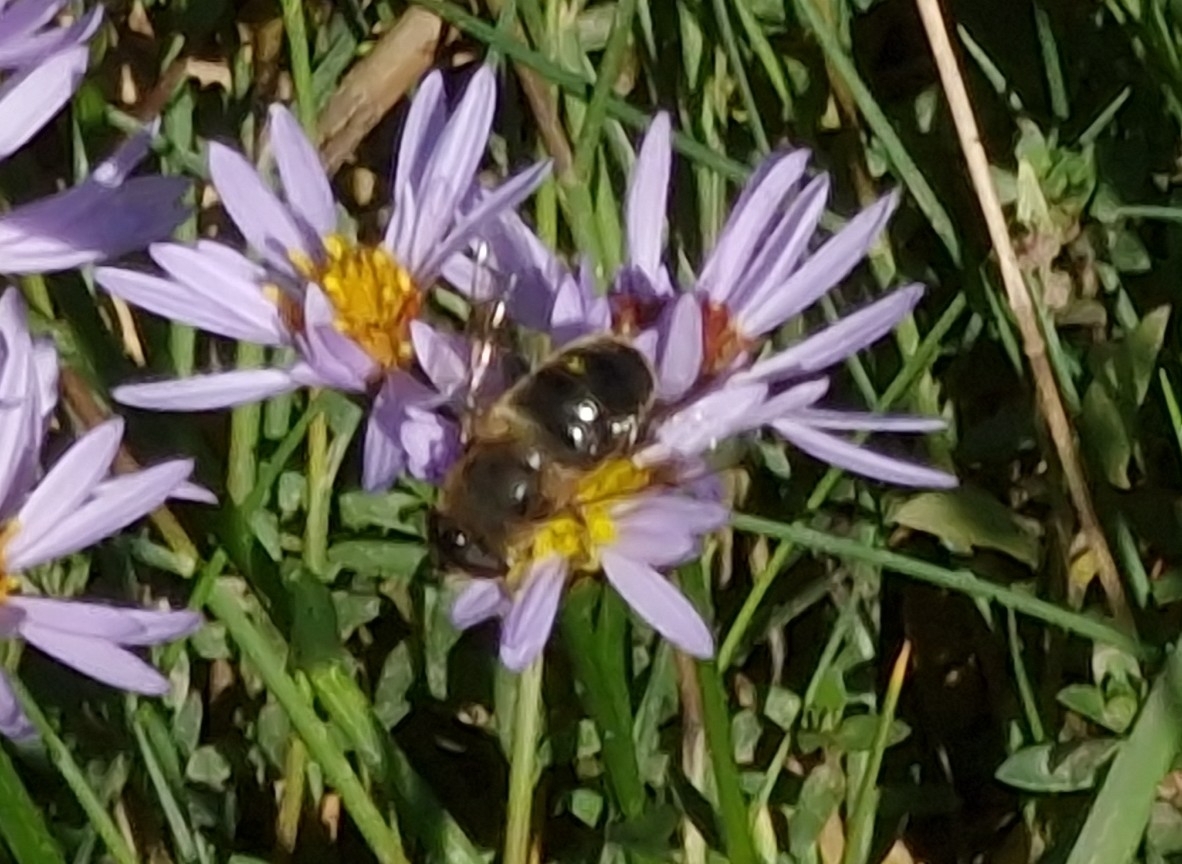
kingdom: Animalia
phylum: Arthropoda
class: Insecta
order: Diptera
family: Syrphidae
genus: Eristalis
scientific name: Eristalis tenax
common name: Drone fly
